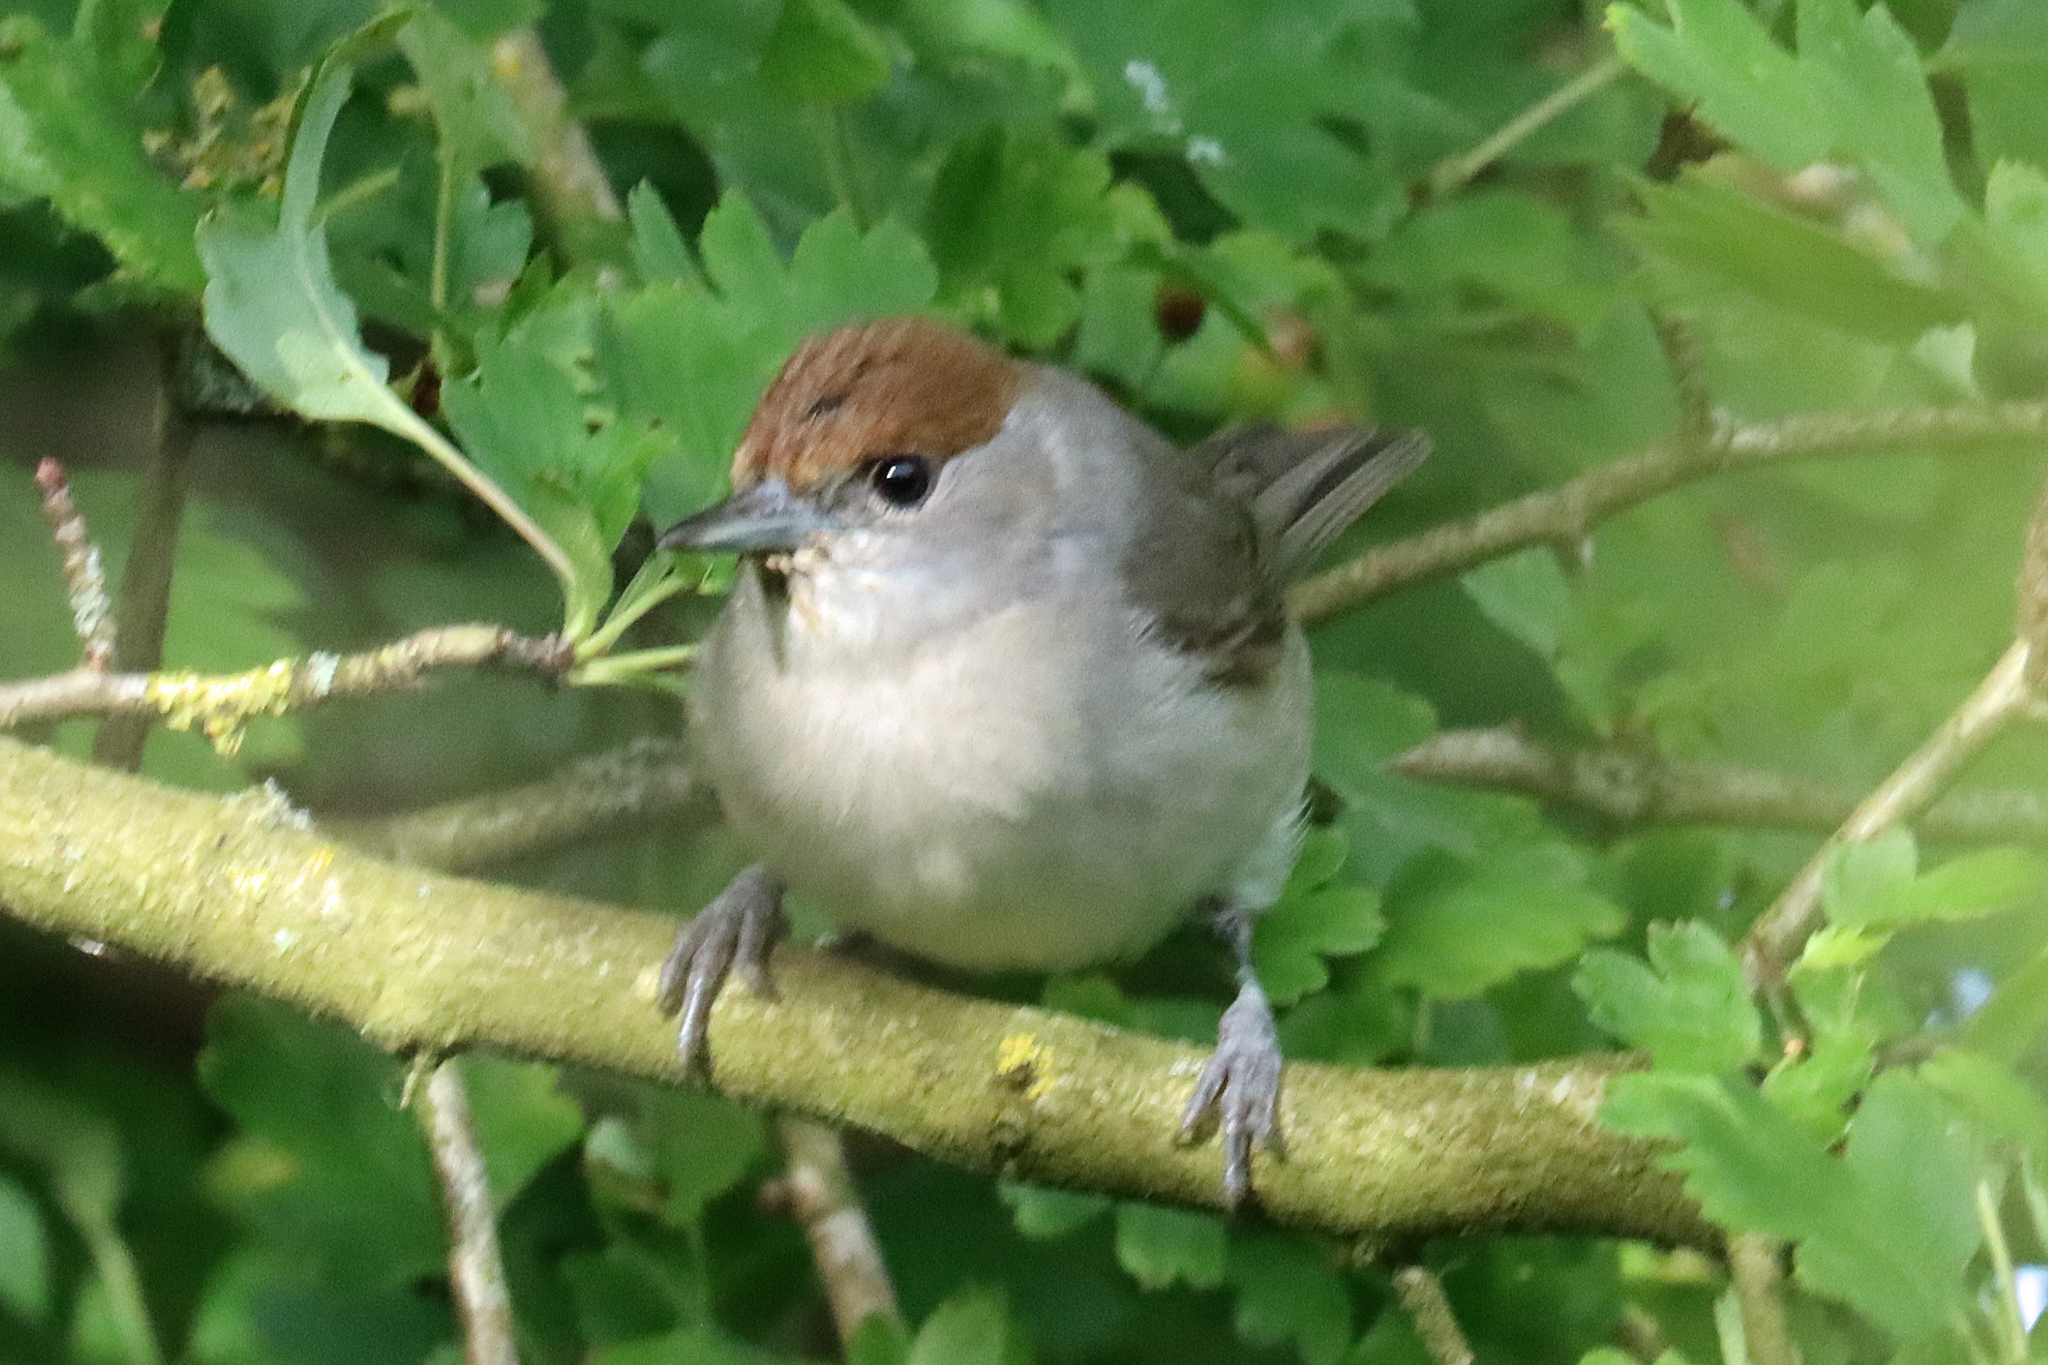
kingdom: Animalia
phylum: Chordata
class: Aves
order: Passeriformes
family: Sylviidae
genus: Sylvia
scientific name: Sylvia atricapilla
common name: Eurasian blackcap
